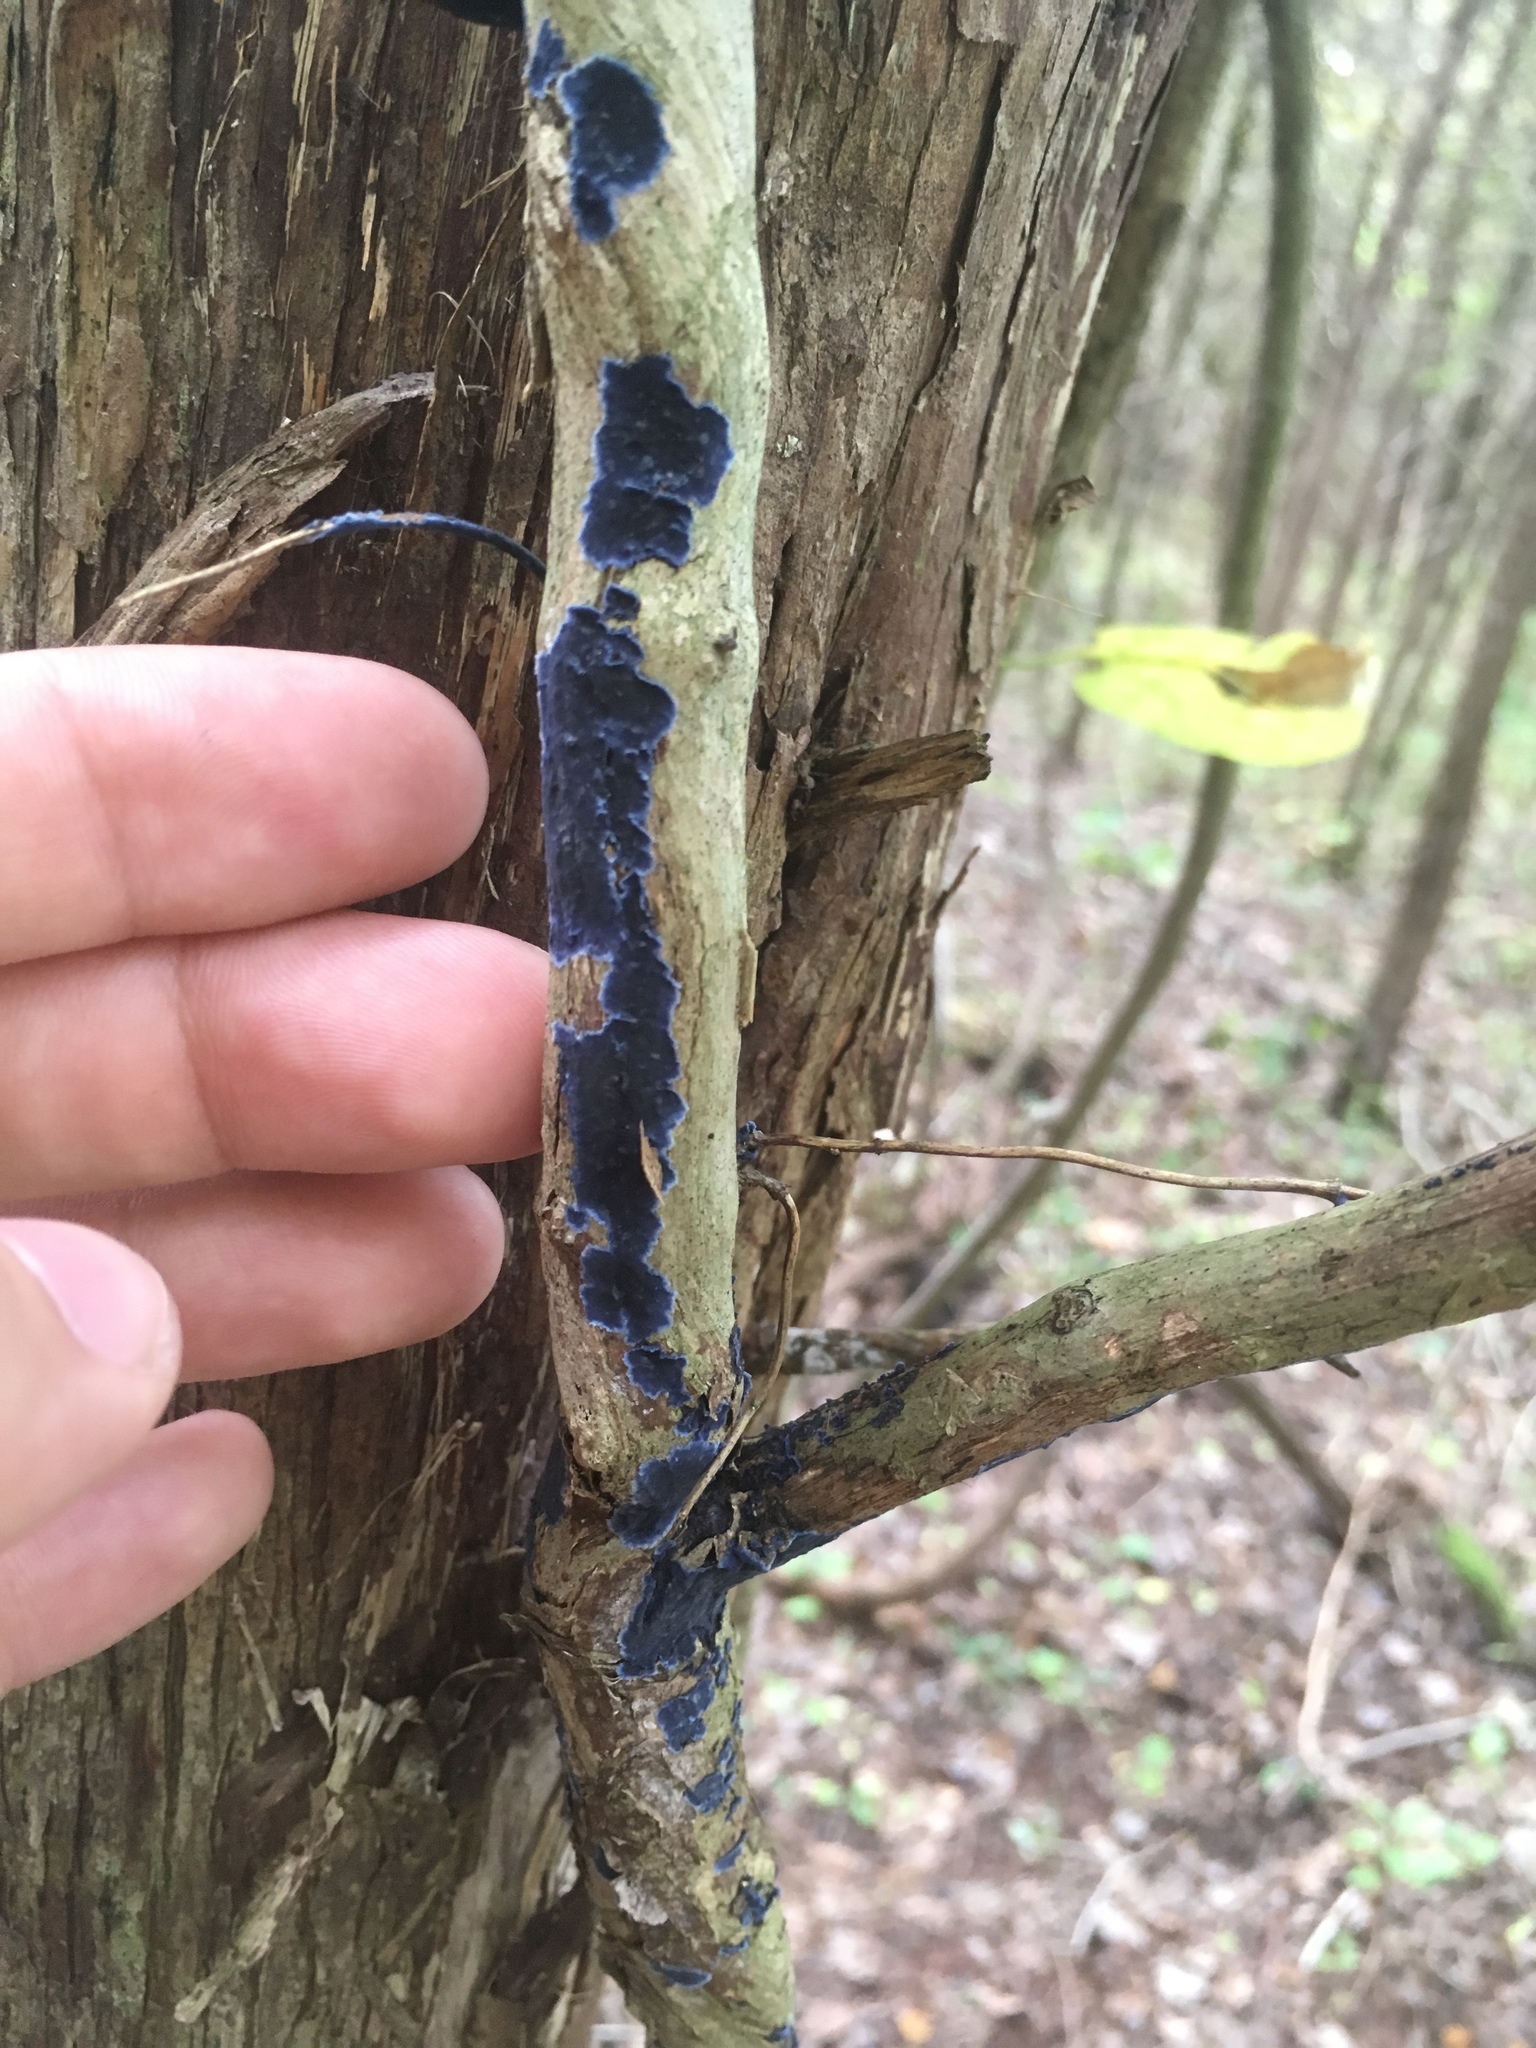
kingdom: Fungi
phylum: Basidiomycota
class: Agaricomycetes
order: Polyporales
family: Phanerochaetaceae
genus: Terana
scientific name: Terana coerulea
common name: Cobalt crust
